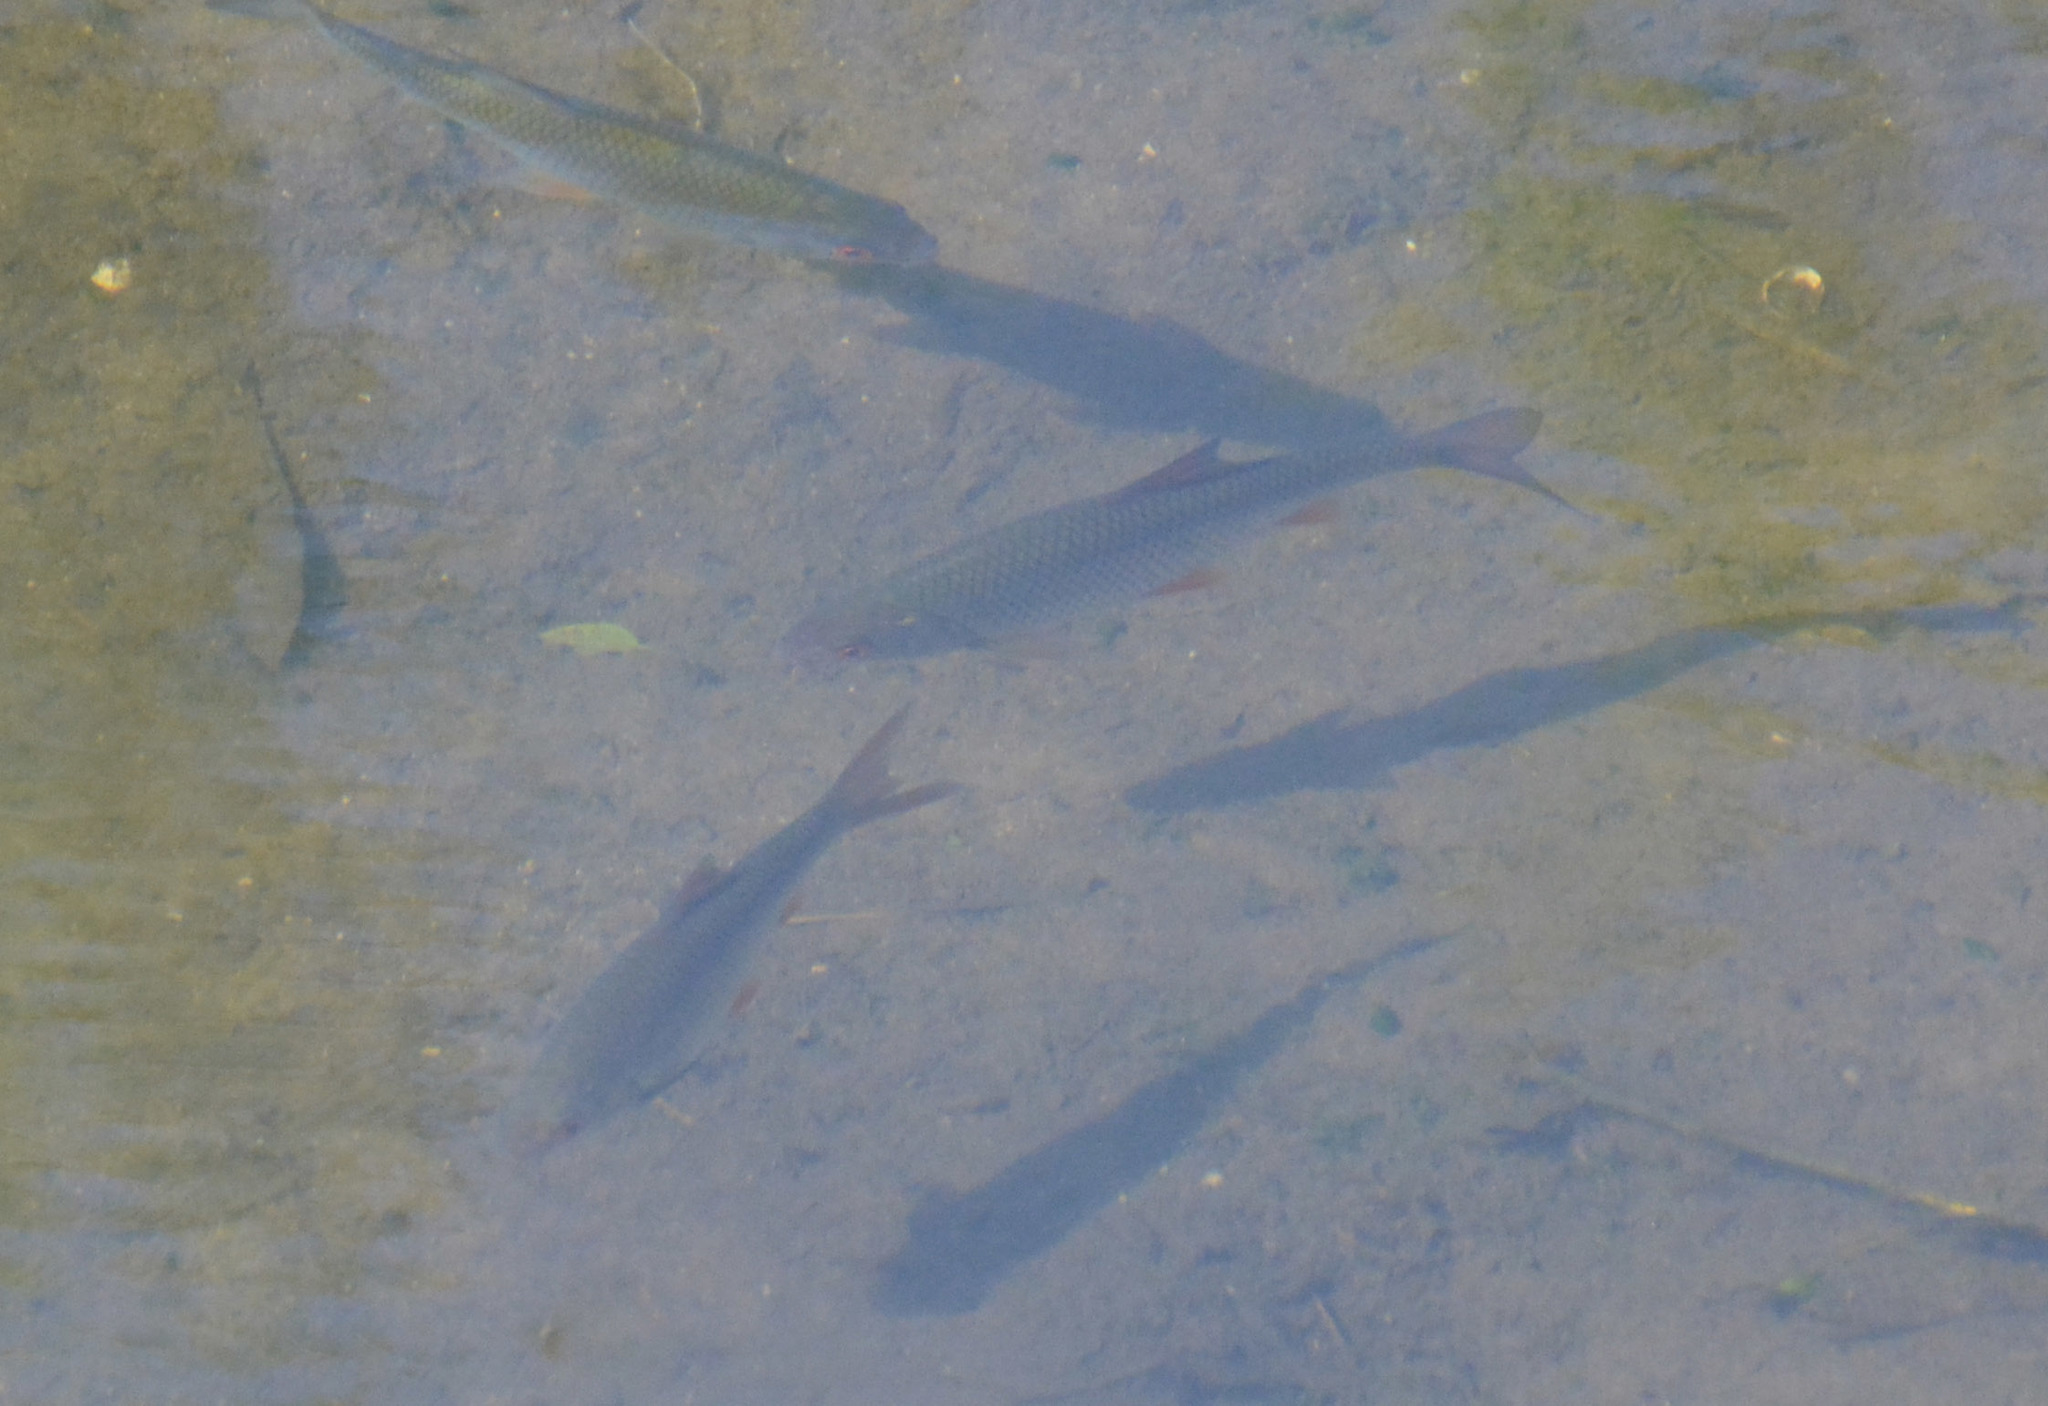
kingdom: Animalia
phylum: Chordata
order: Cypriniformes
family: Cyprinidae
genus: Scardinius
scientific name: Scardinius erythrophthalmus
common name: Rudd
